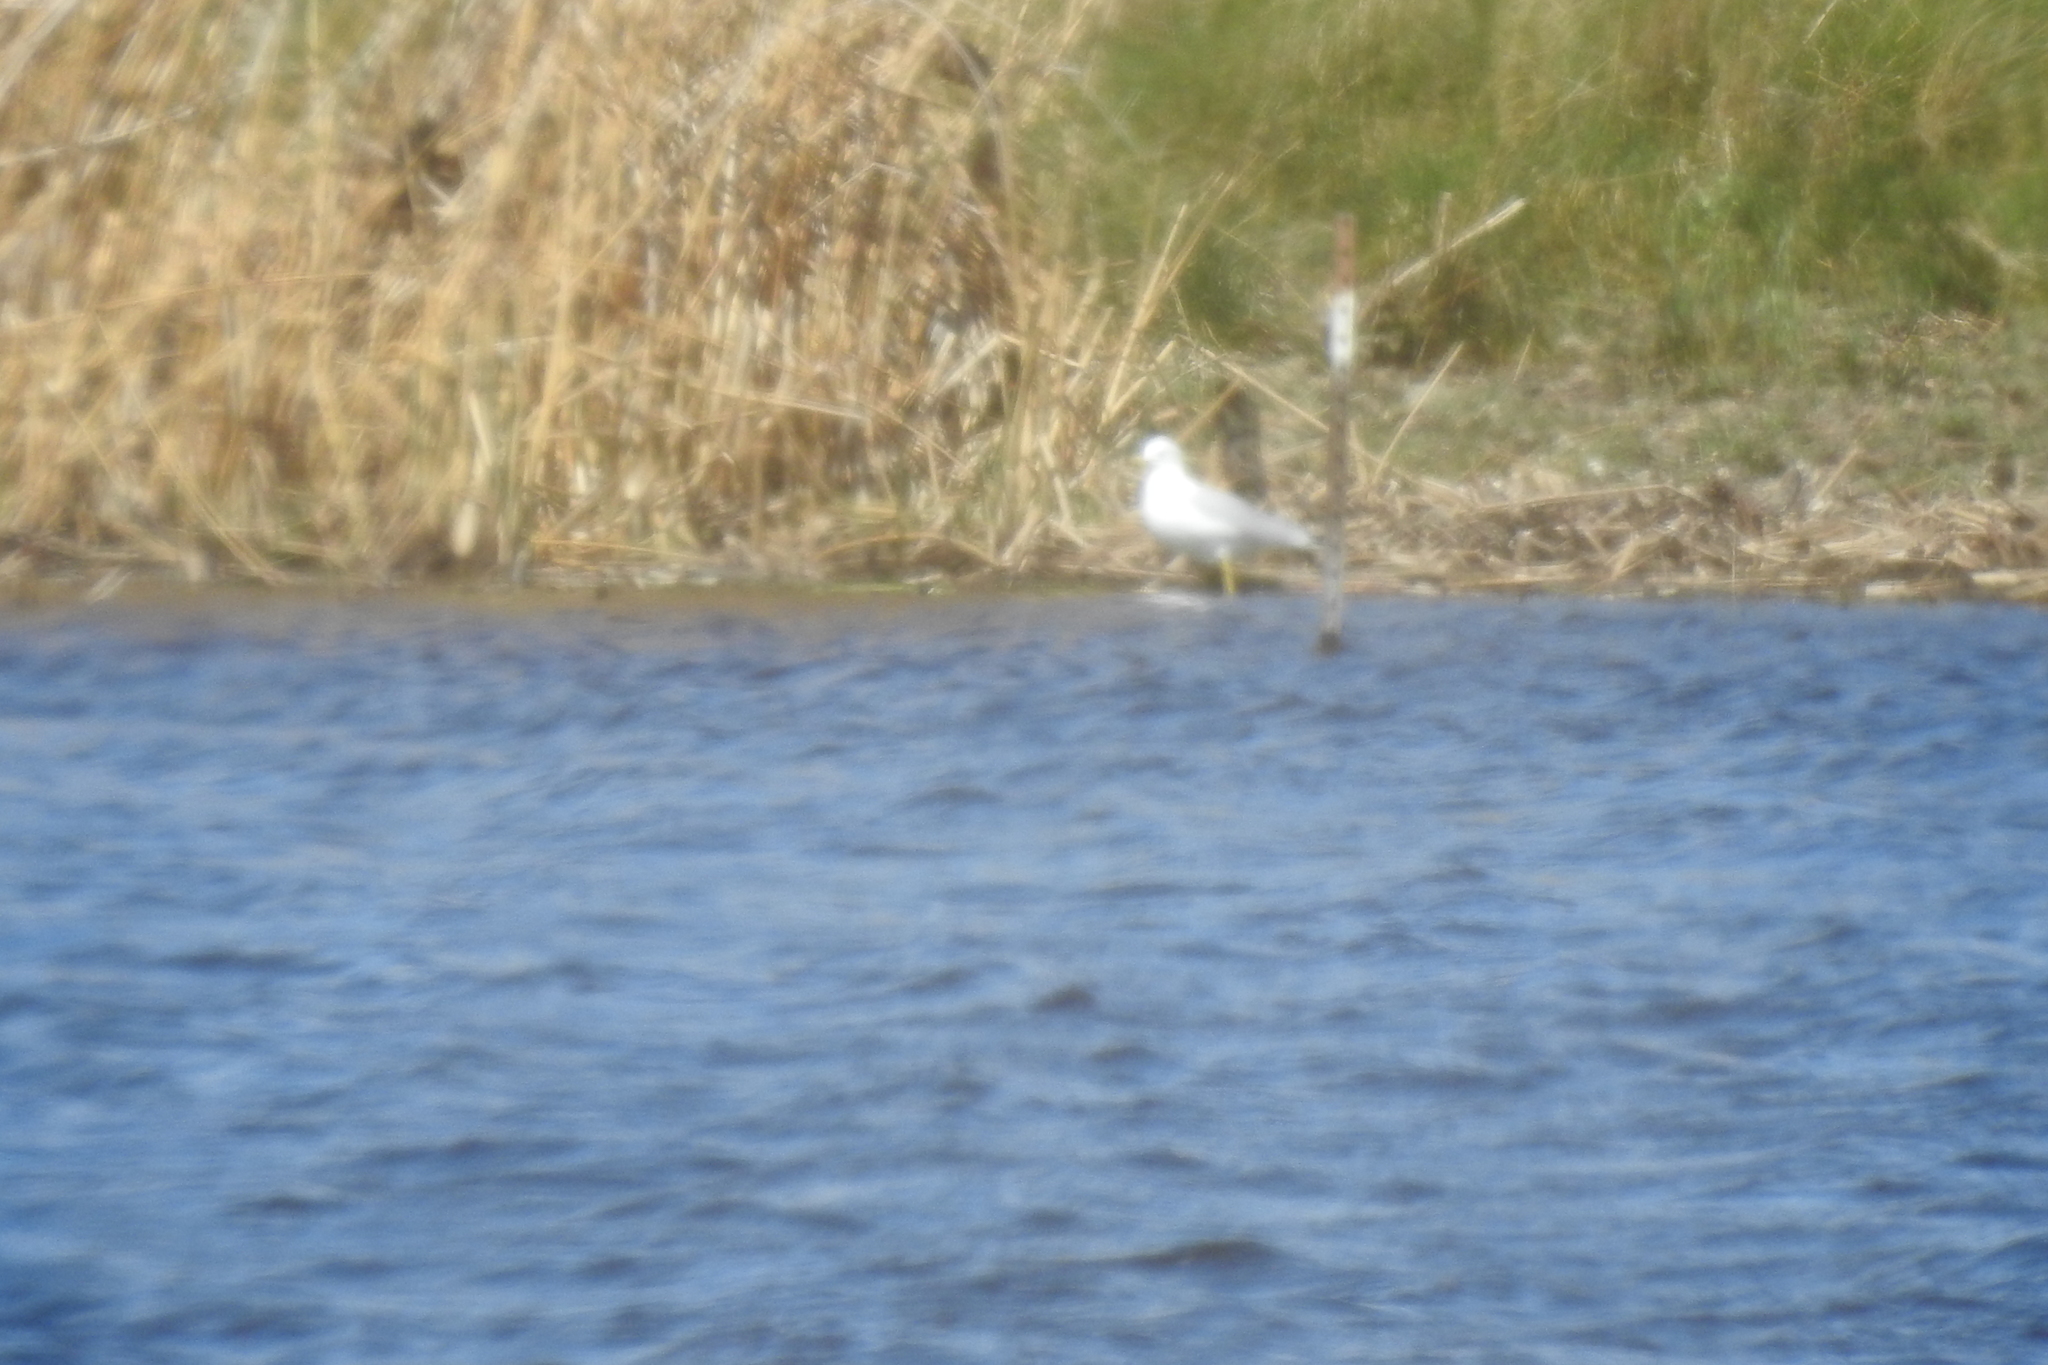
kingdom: Animalia
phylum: Chordata
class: Aves
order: Charadriiformes
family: Laridae
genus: Larus
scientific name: Larus delawarensis
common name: Ring-billed gull
